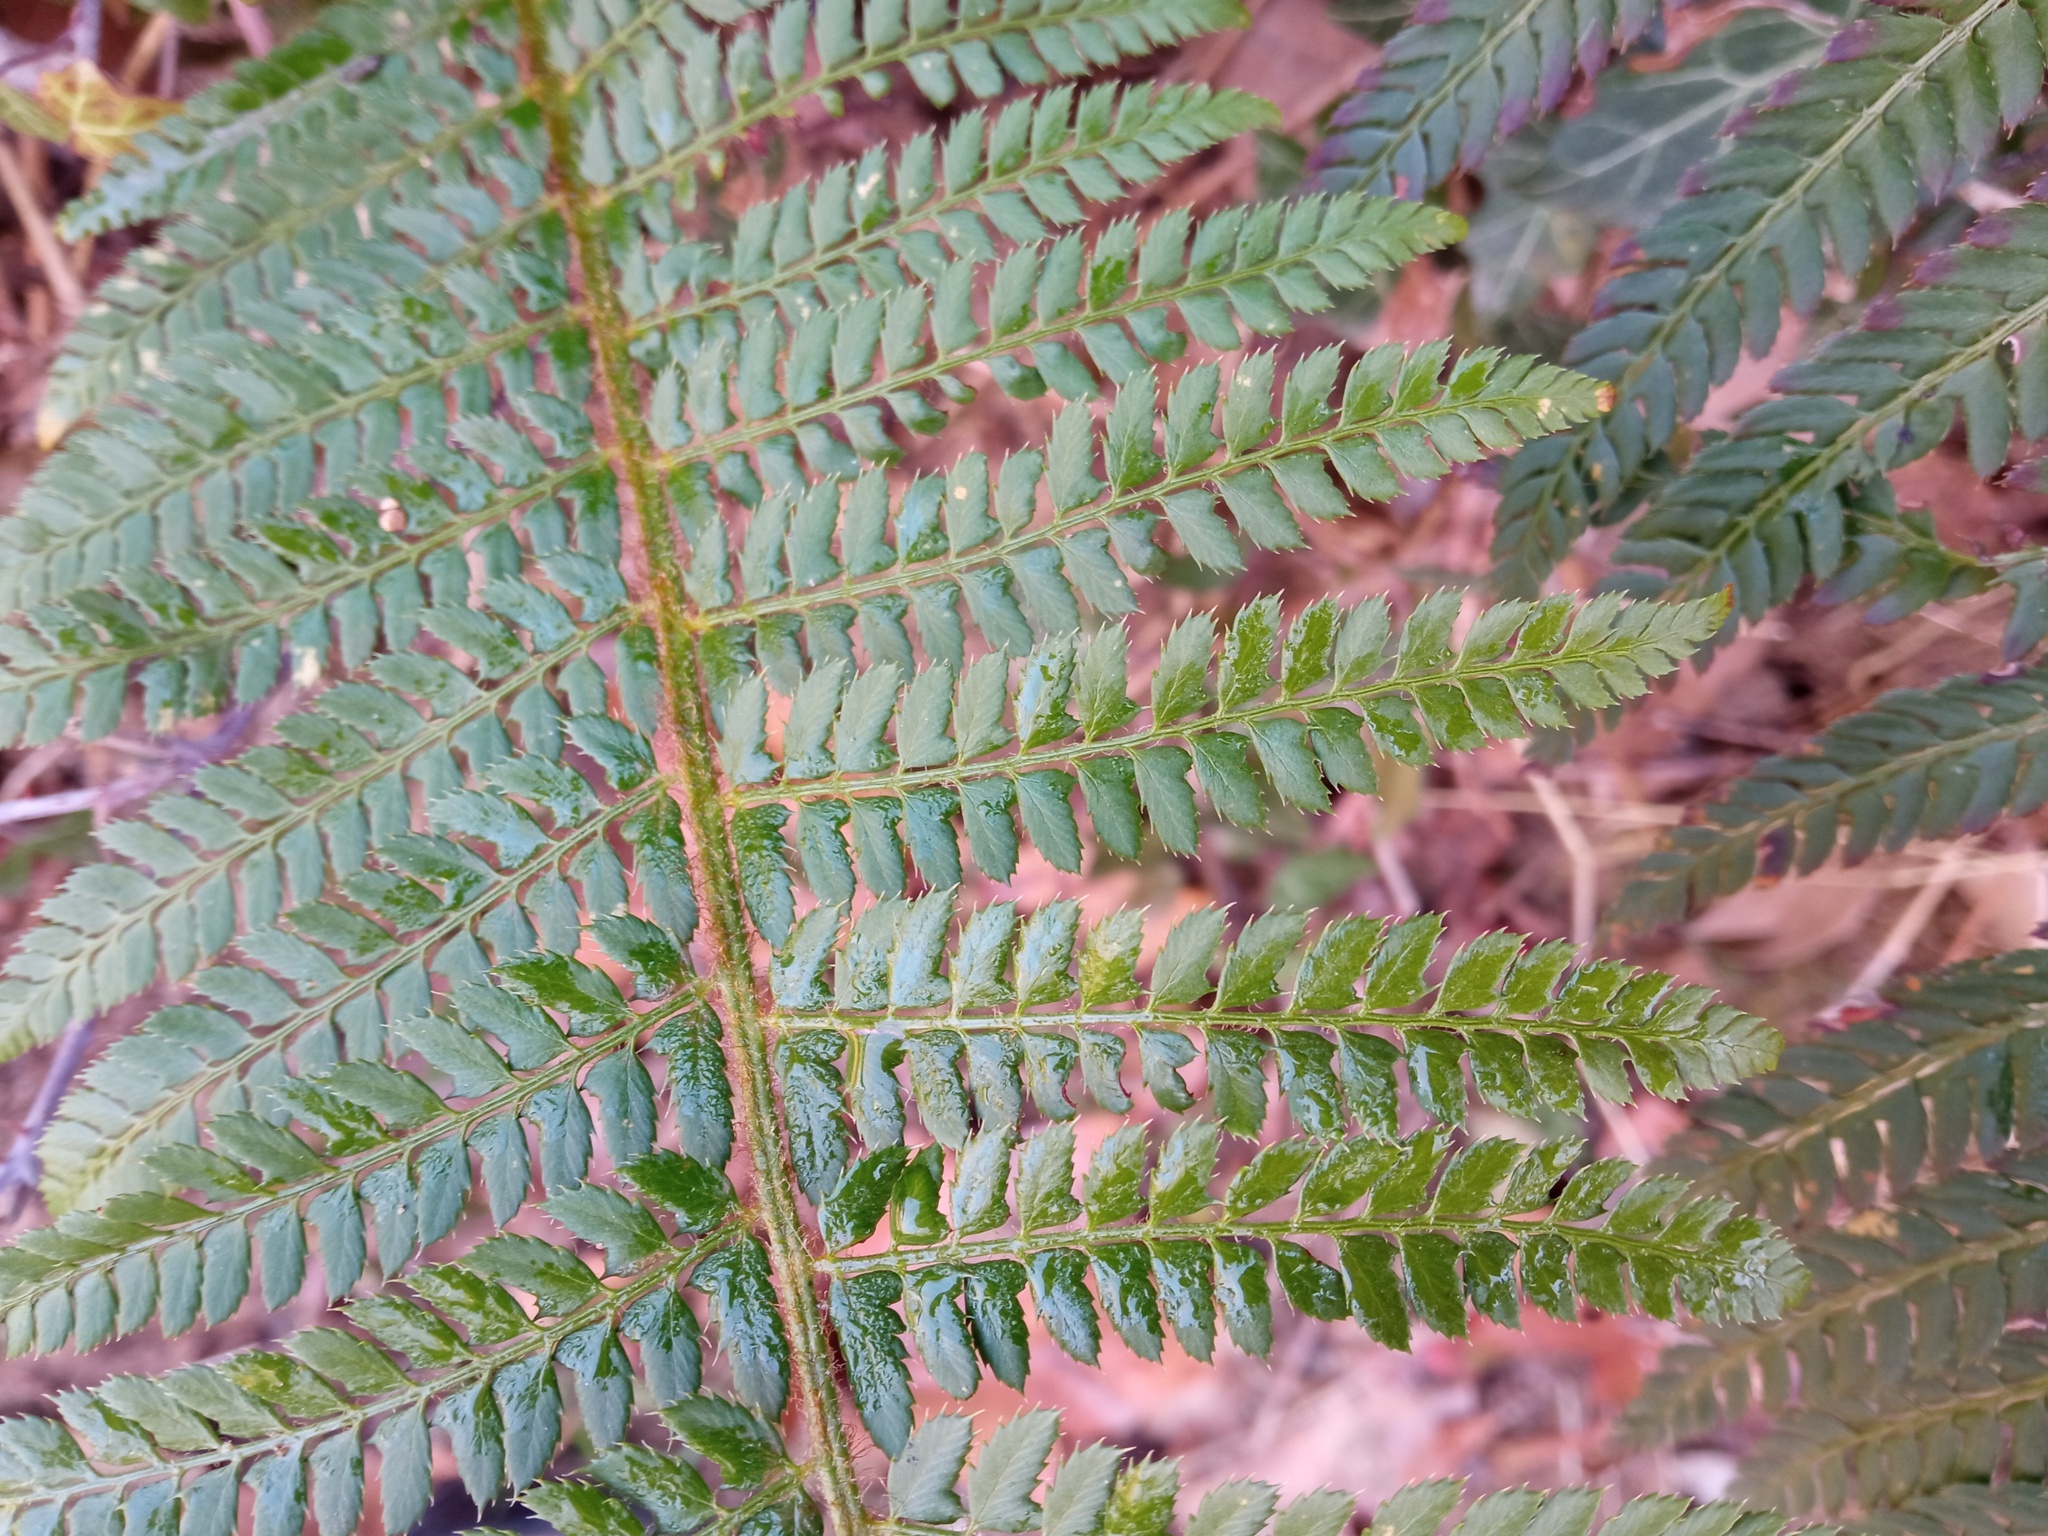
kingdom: Plantae
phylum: Tracheophyta
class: Polypodiopsida
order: Polypodiales
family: Dryopteridaceae
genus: Polystichum
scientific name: Polystichum setiferum
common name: Soft shield-fern
